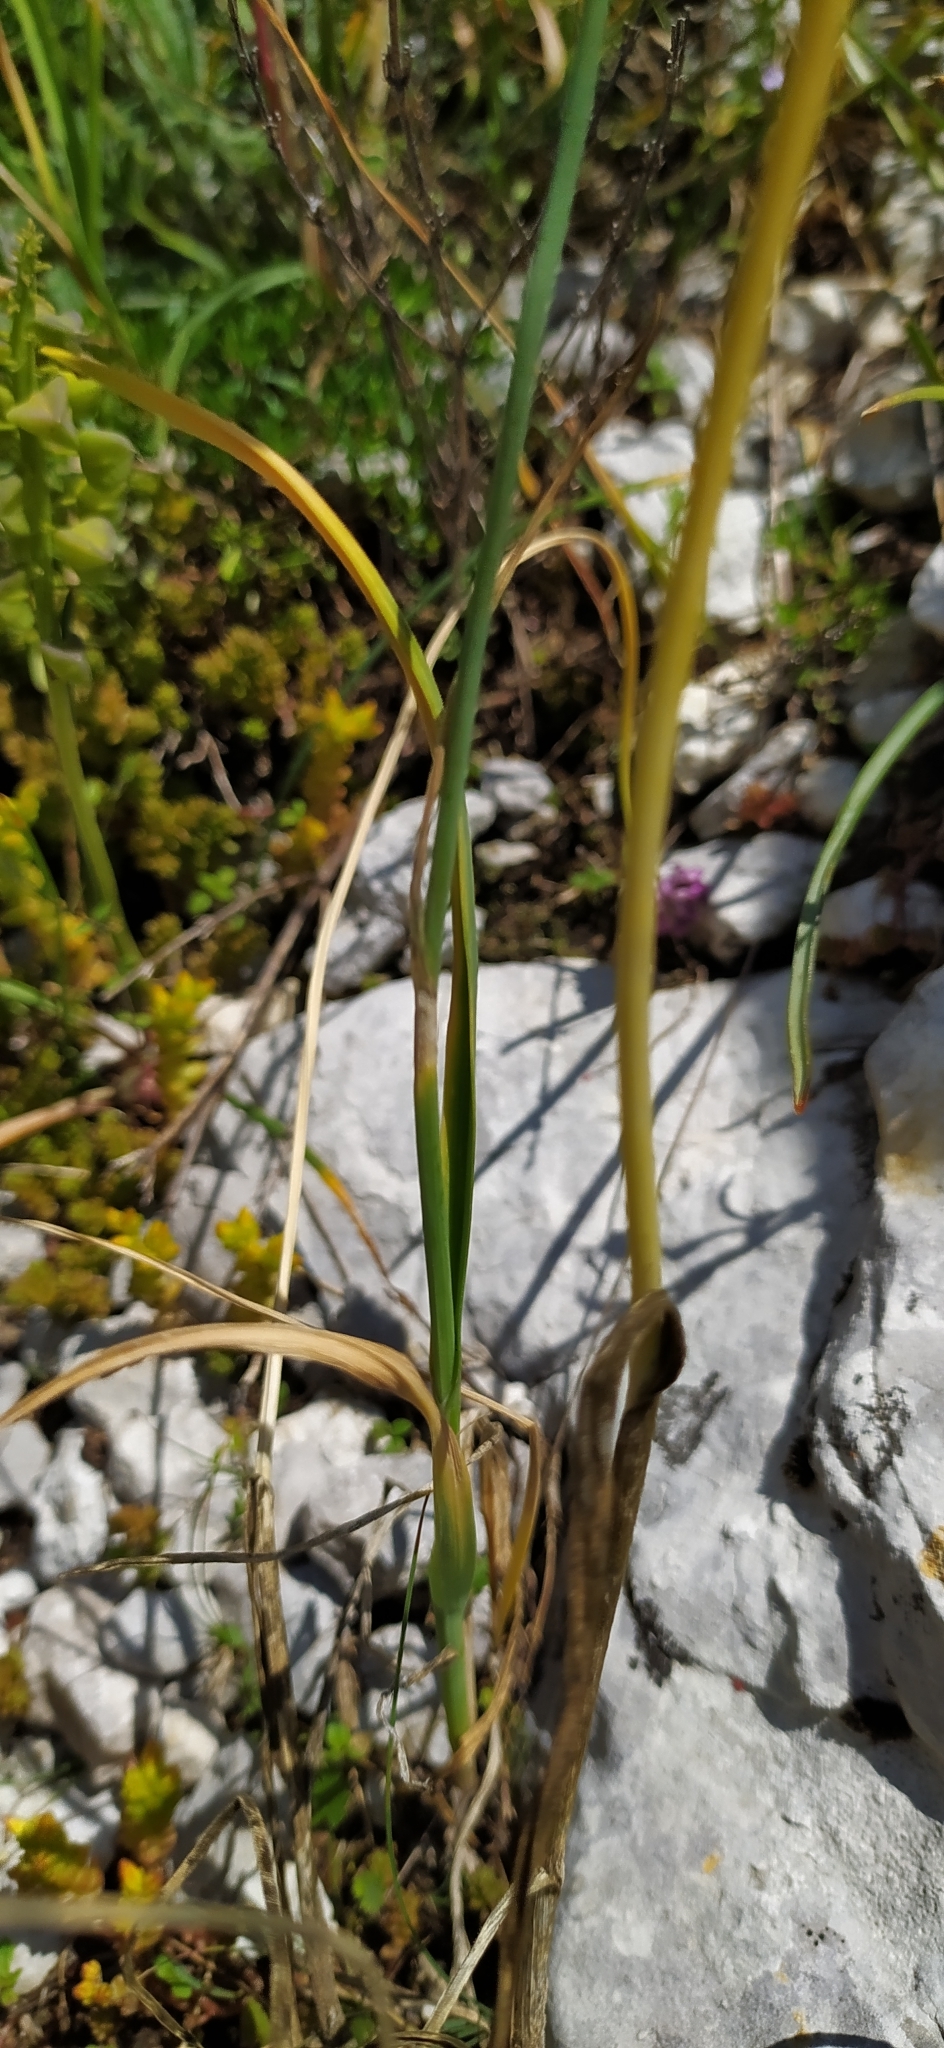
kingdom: Plantae
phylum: Tracheophyta
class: Liliopsida
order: Asparagales
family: Amaryllidaceae
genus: Allium
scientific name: Allium rotundum
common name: Sand leek
